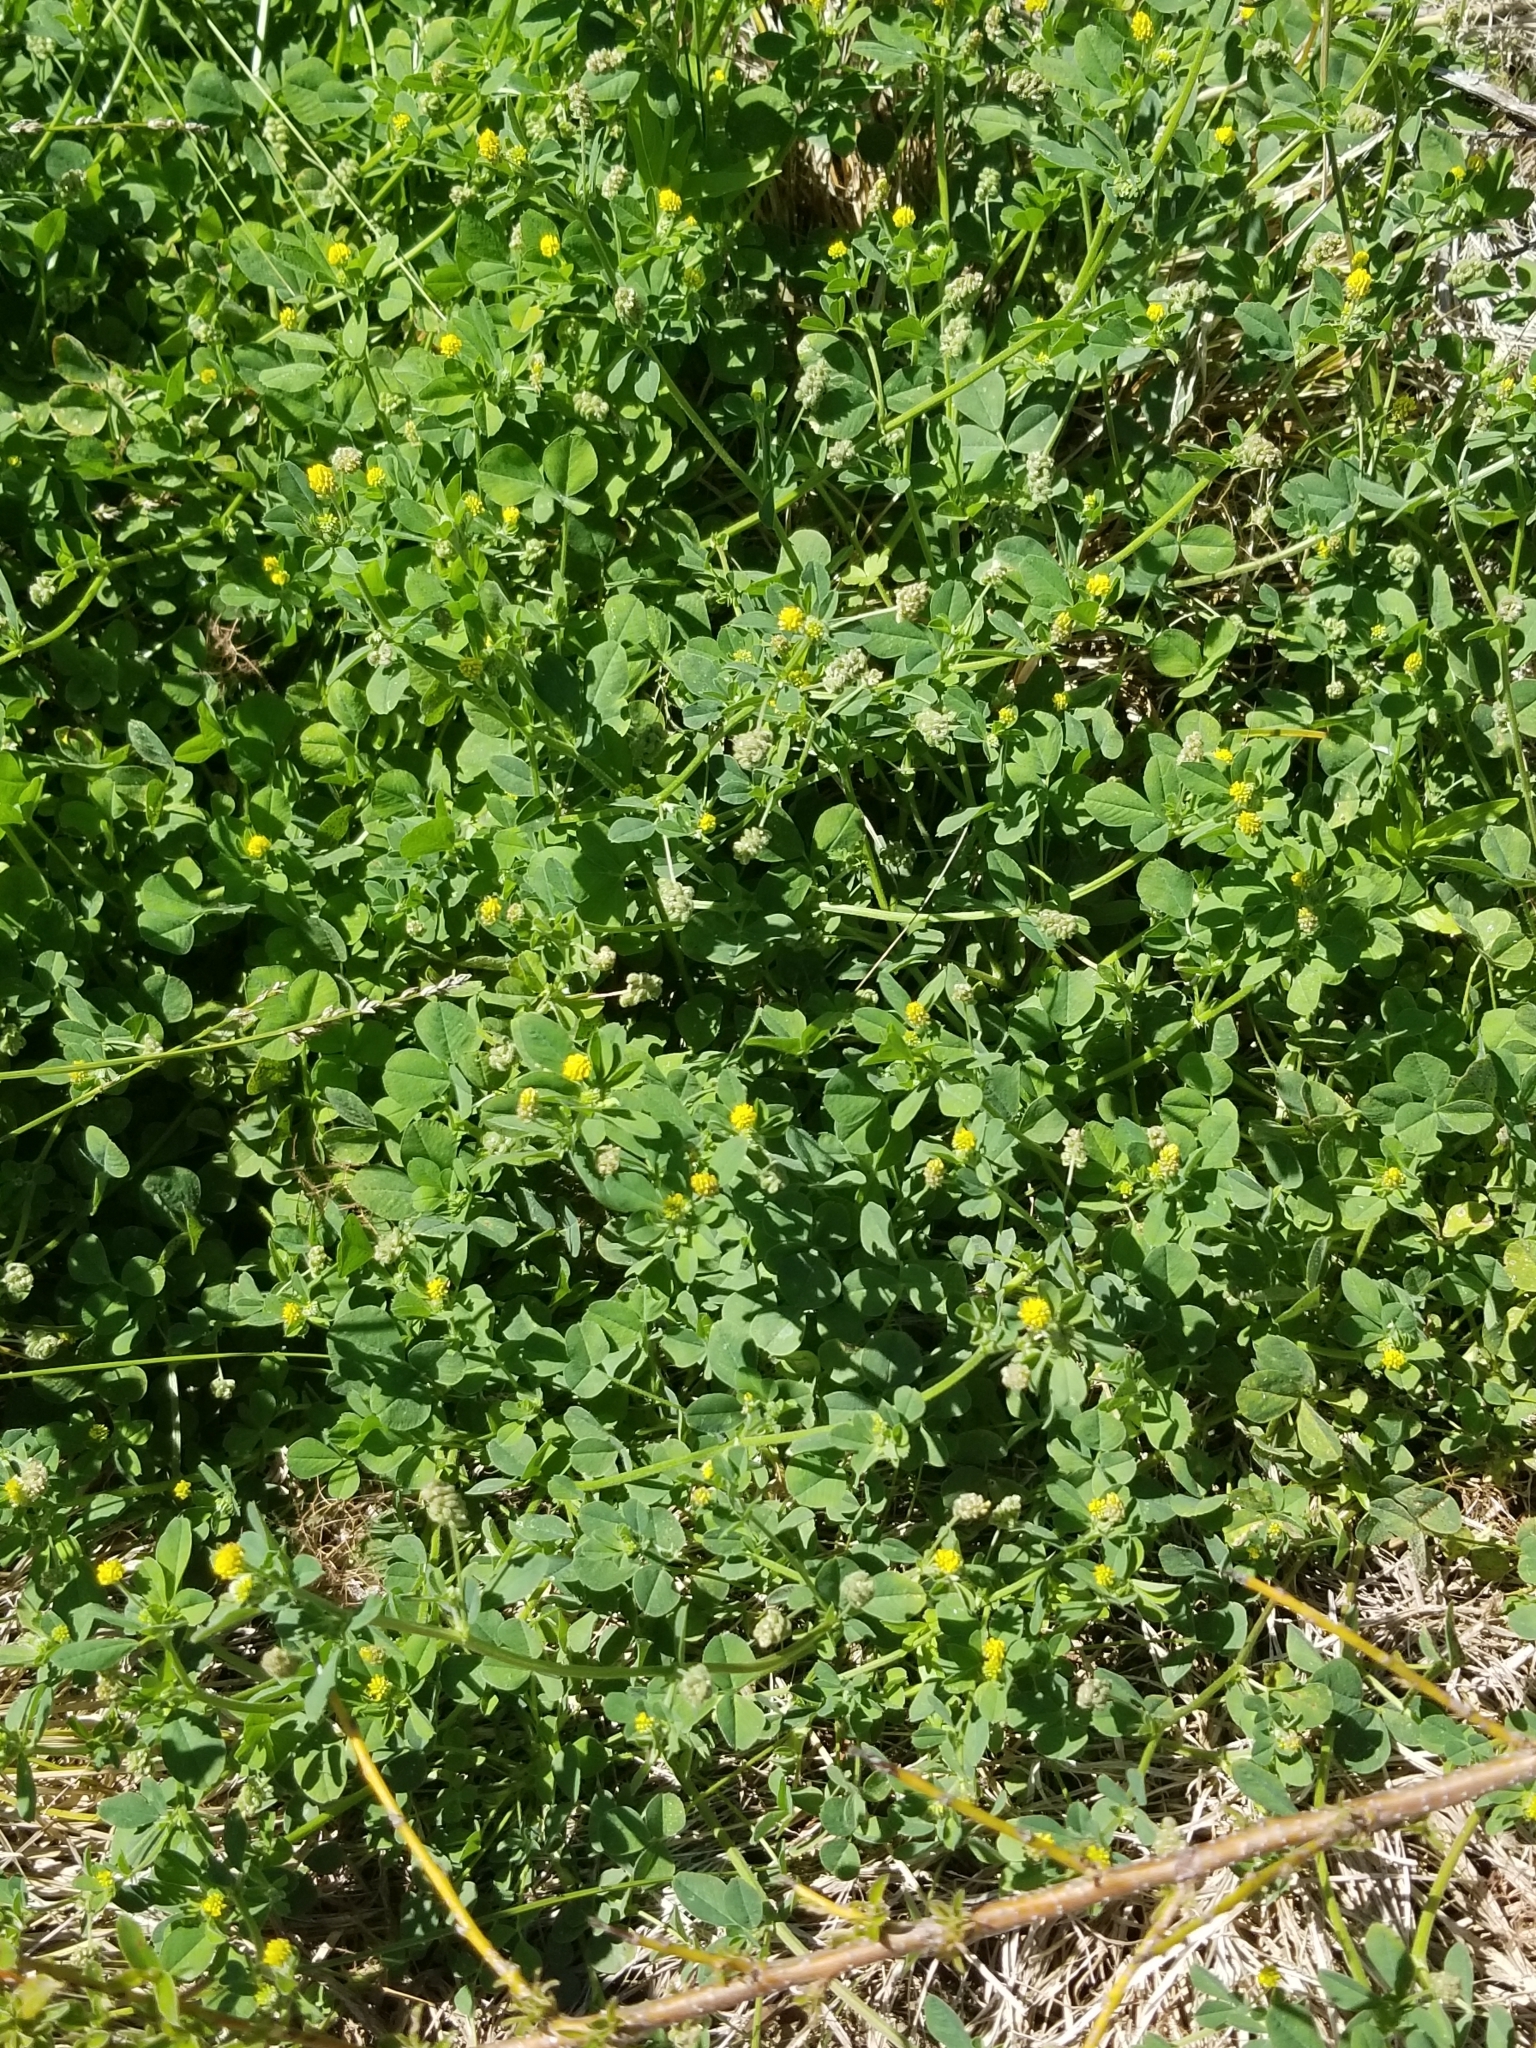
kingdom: Plantae
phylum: Tracheophyta
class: Magnoliopsida
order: Fabales
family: Fabaceae
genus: Medicago
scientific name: Medicago lupulina
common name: Black medick
